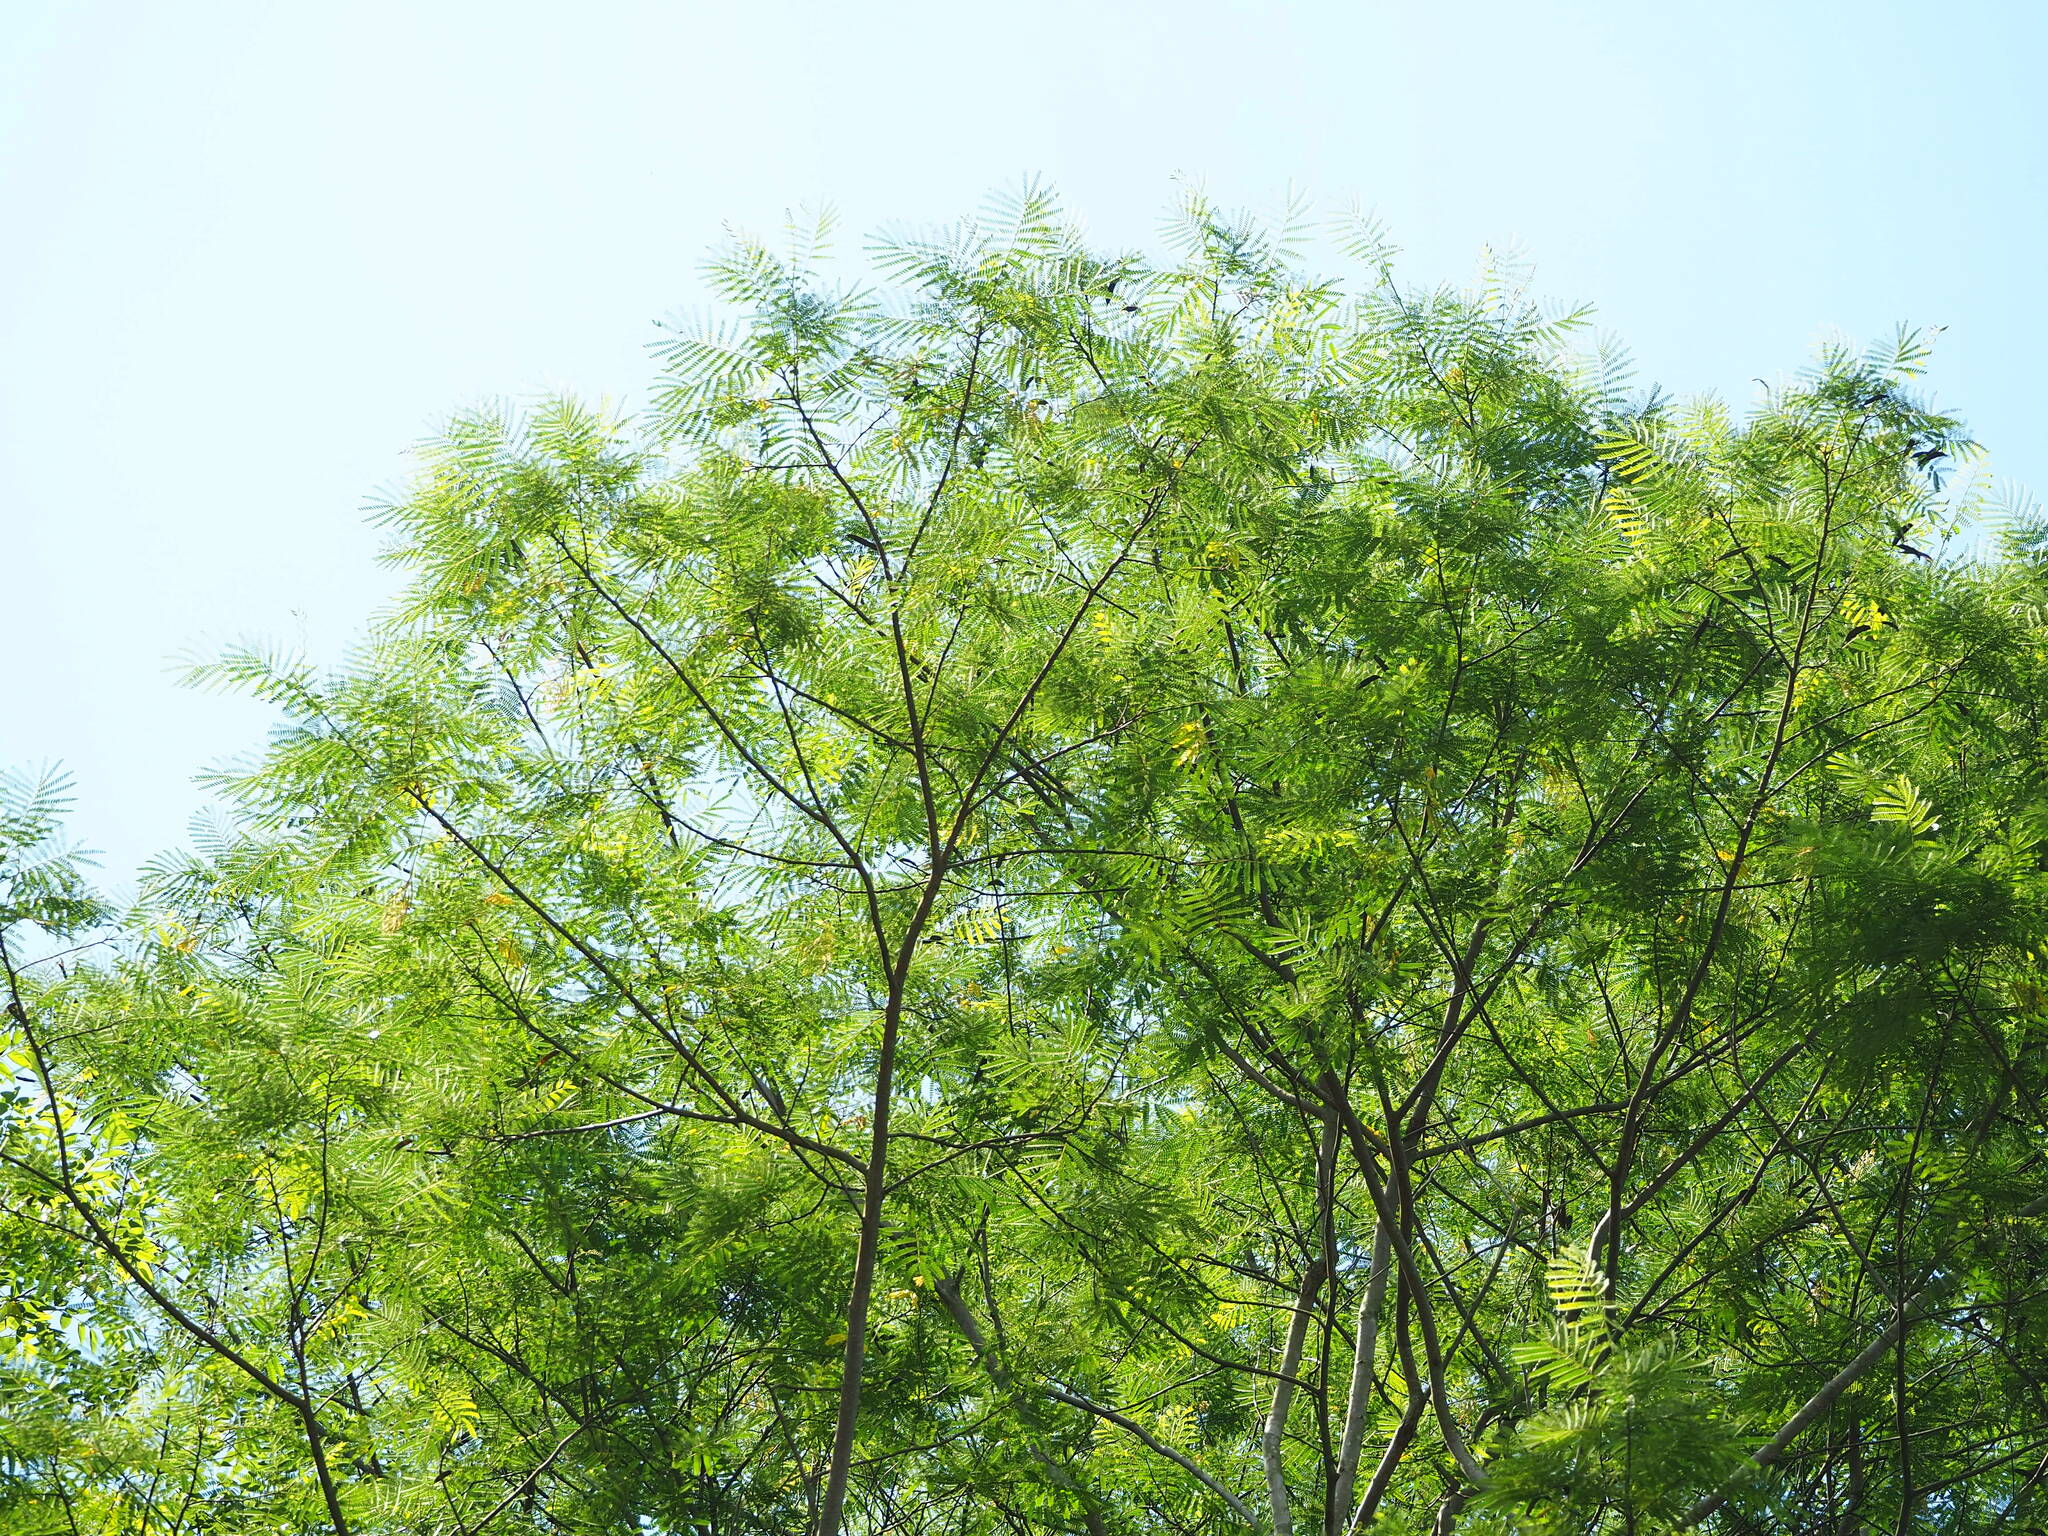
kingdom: Plantae
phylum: Tracheophyta
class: Magnoliopsida
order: Fabales
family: Fabaceae
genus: Falcataria
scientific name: Falcataria falcata
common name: Moluccan albizia
